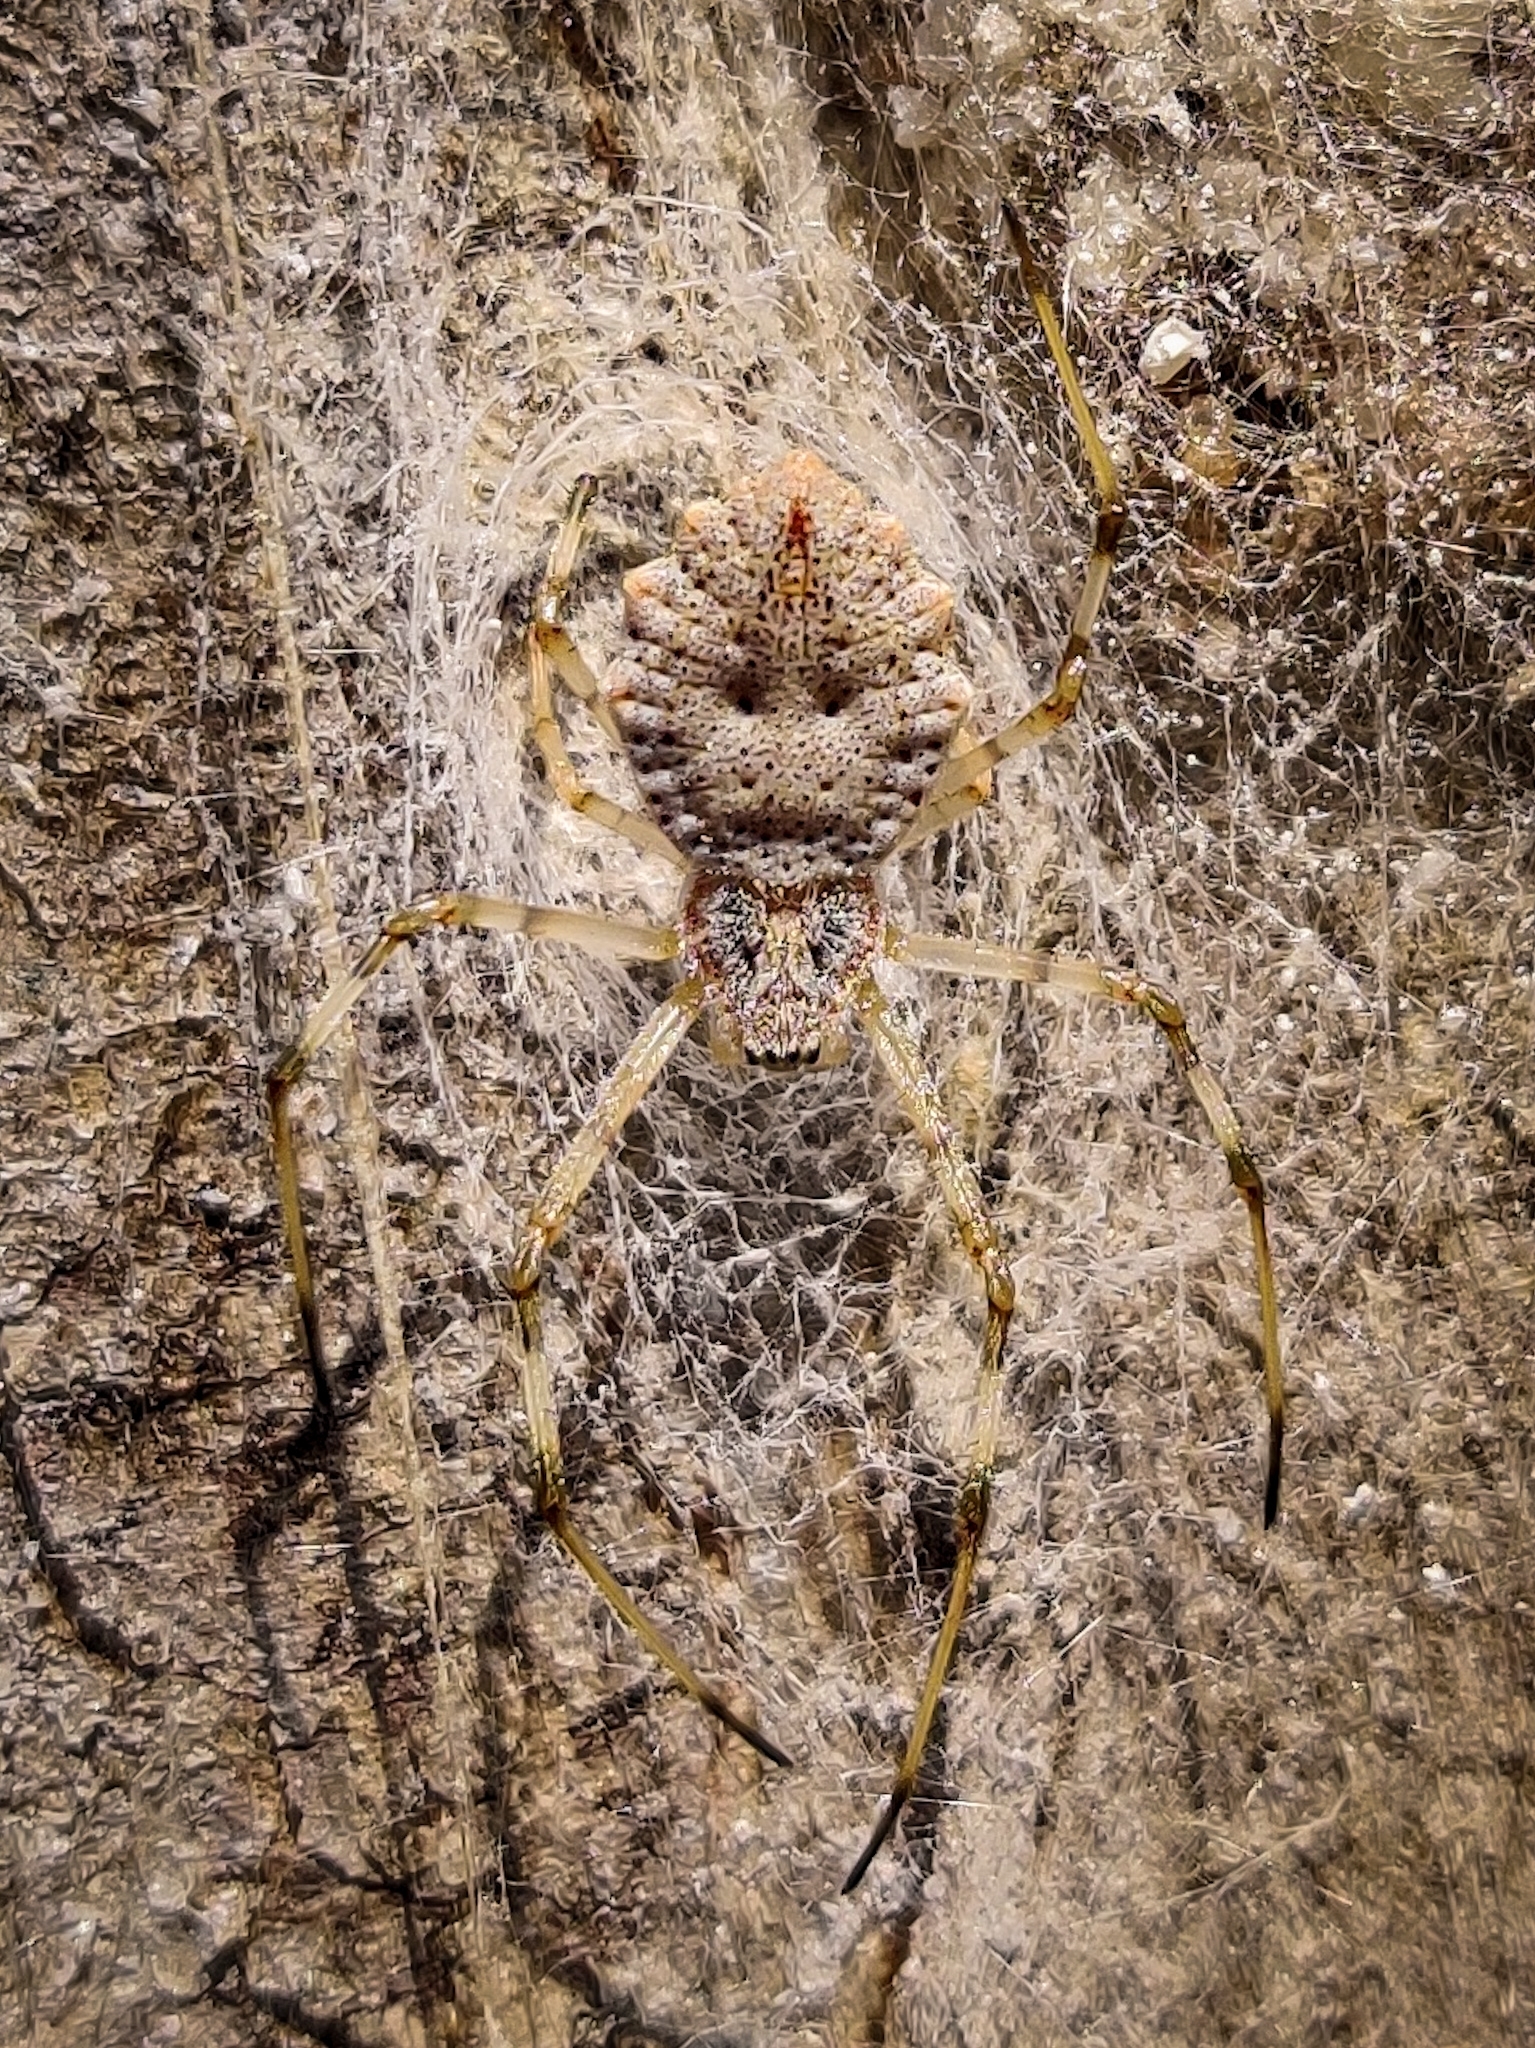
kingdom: Animalia
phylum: Arthropoda
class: Arachnida
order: Araneae
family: Araneidae
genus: Herennia
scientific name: Herennia multipuncta
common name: Spotted coin spider
